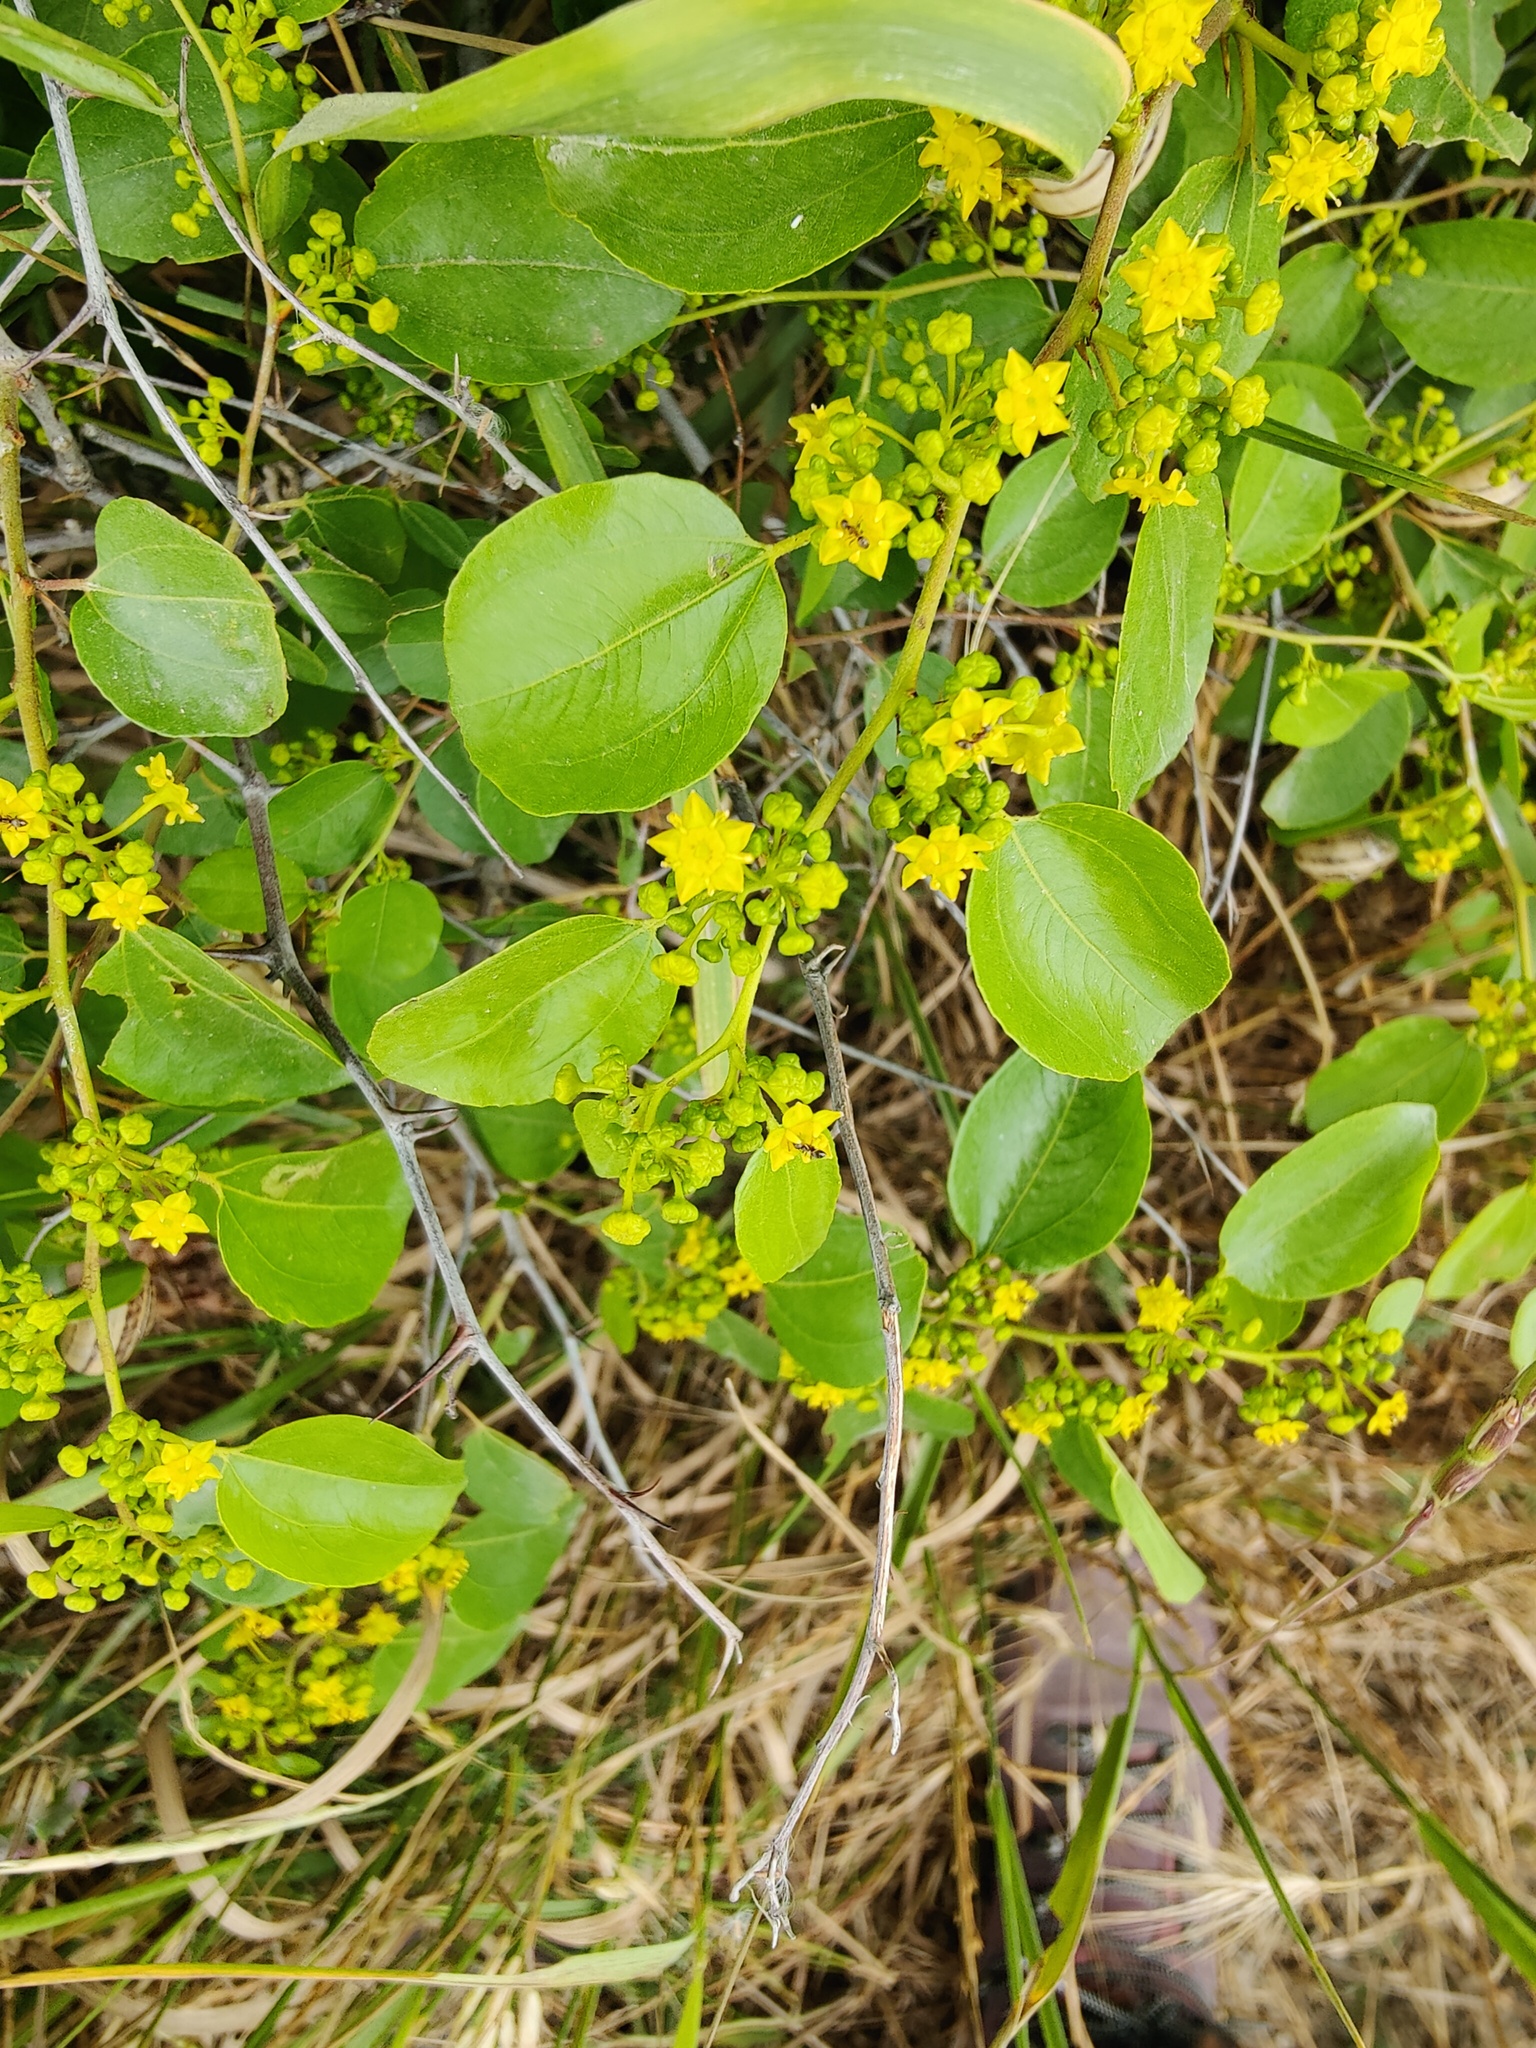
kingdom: Plantae
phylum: Tracheophyta
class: Magnoliopsida
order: Rosales
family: Rhamnaceae
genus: Paliurus
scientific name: Paliurus spina-christi
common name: Jeruselem thorn
